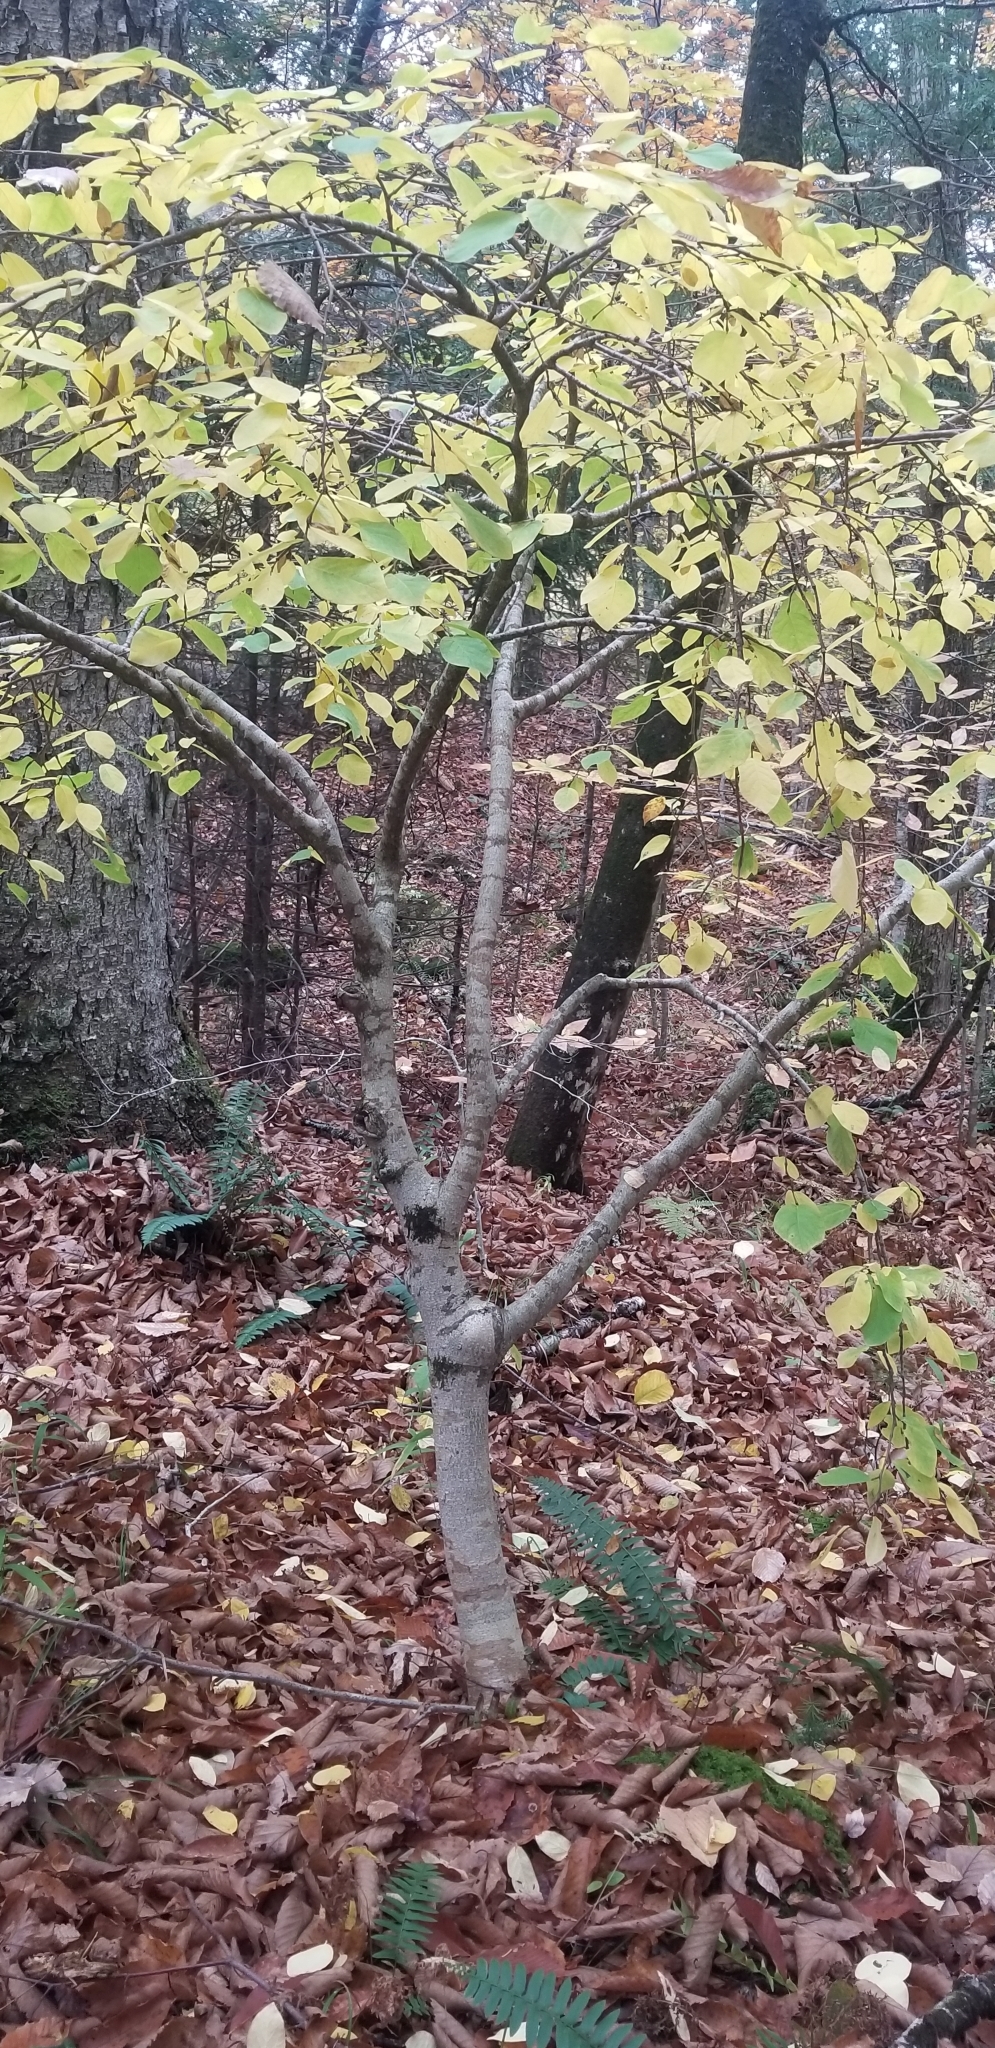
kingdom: Plantae
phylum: Tracheophyta
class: Magnoliopsida
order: Malvales
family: Thymelaeaceae
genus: Dirca
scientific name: Dirca palustris
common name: Leatherwood
